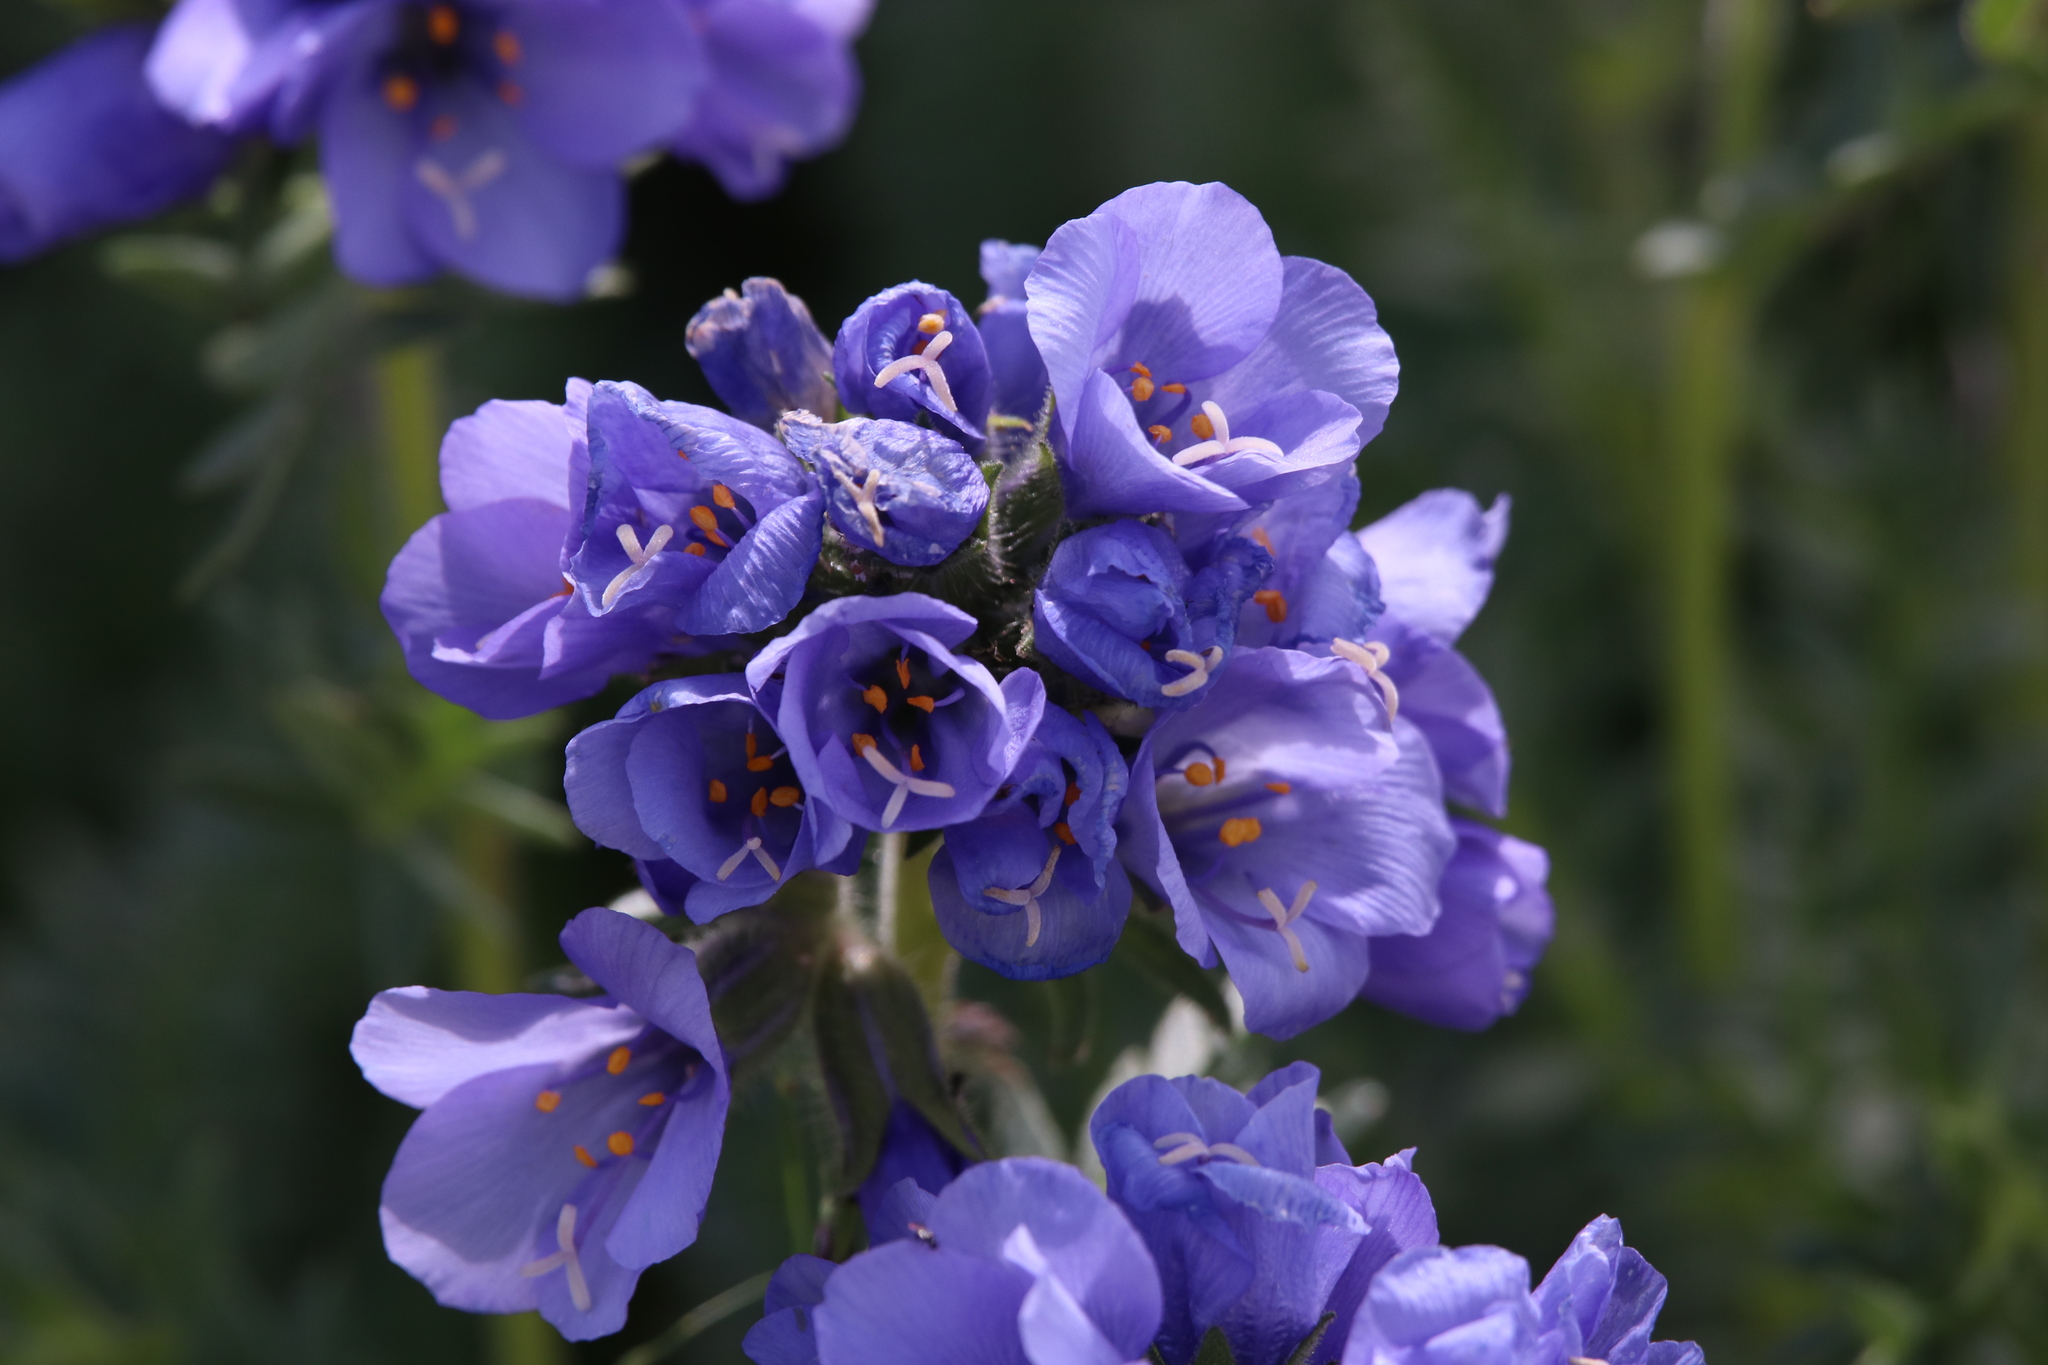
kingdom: Plantae
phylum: Tracheophyta
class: Magnoliopsida
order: Ericales
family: Polemoniaceae
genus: Polemonium
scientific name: Polemonium viscosum
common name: Skunk jacob's-ladder
